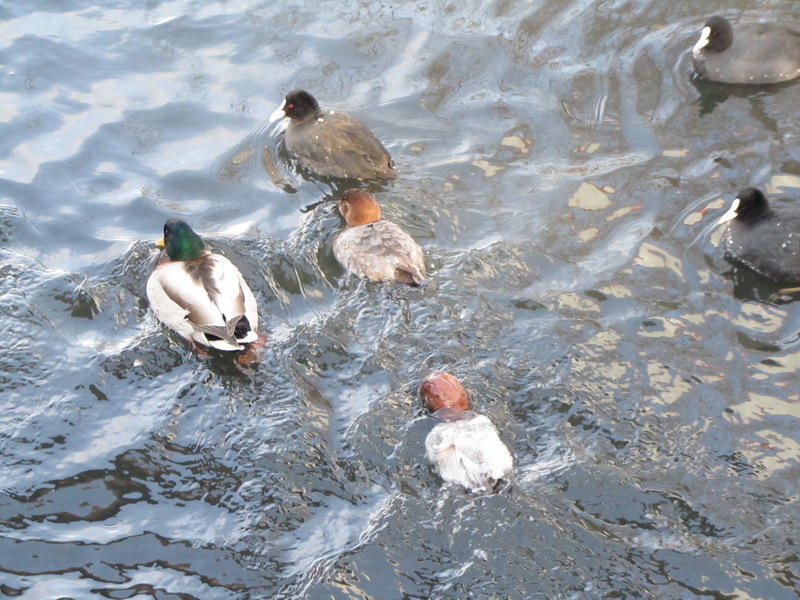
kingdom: Animalia
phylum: Chordata
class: Aves
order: Anseriformes
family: Anatidae
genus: Aythya
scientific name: Aythya ferina
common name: Common pochard
